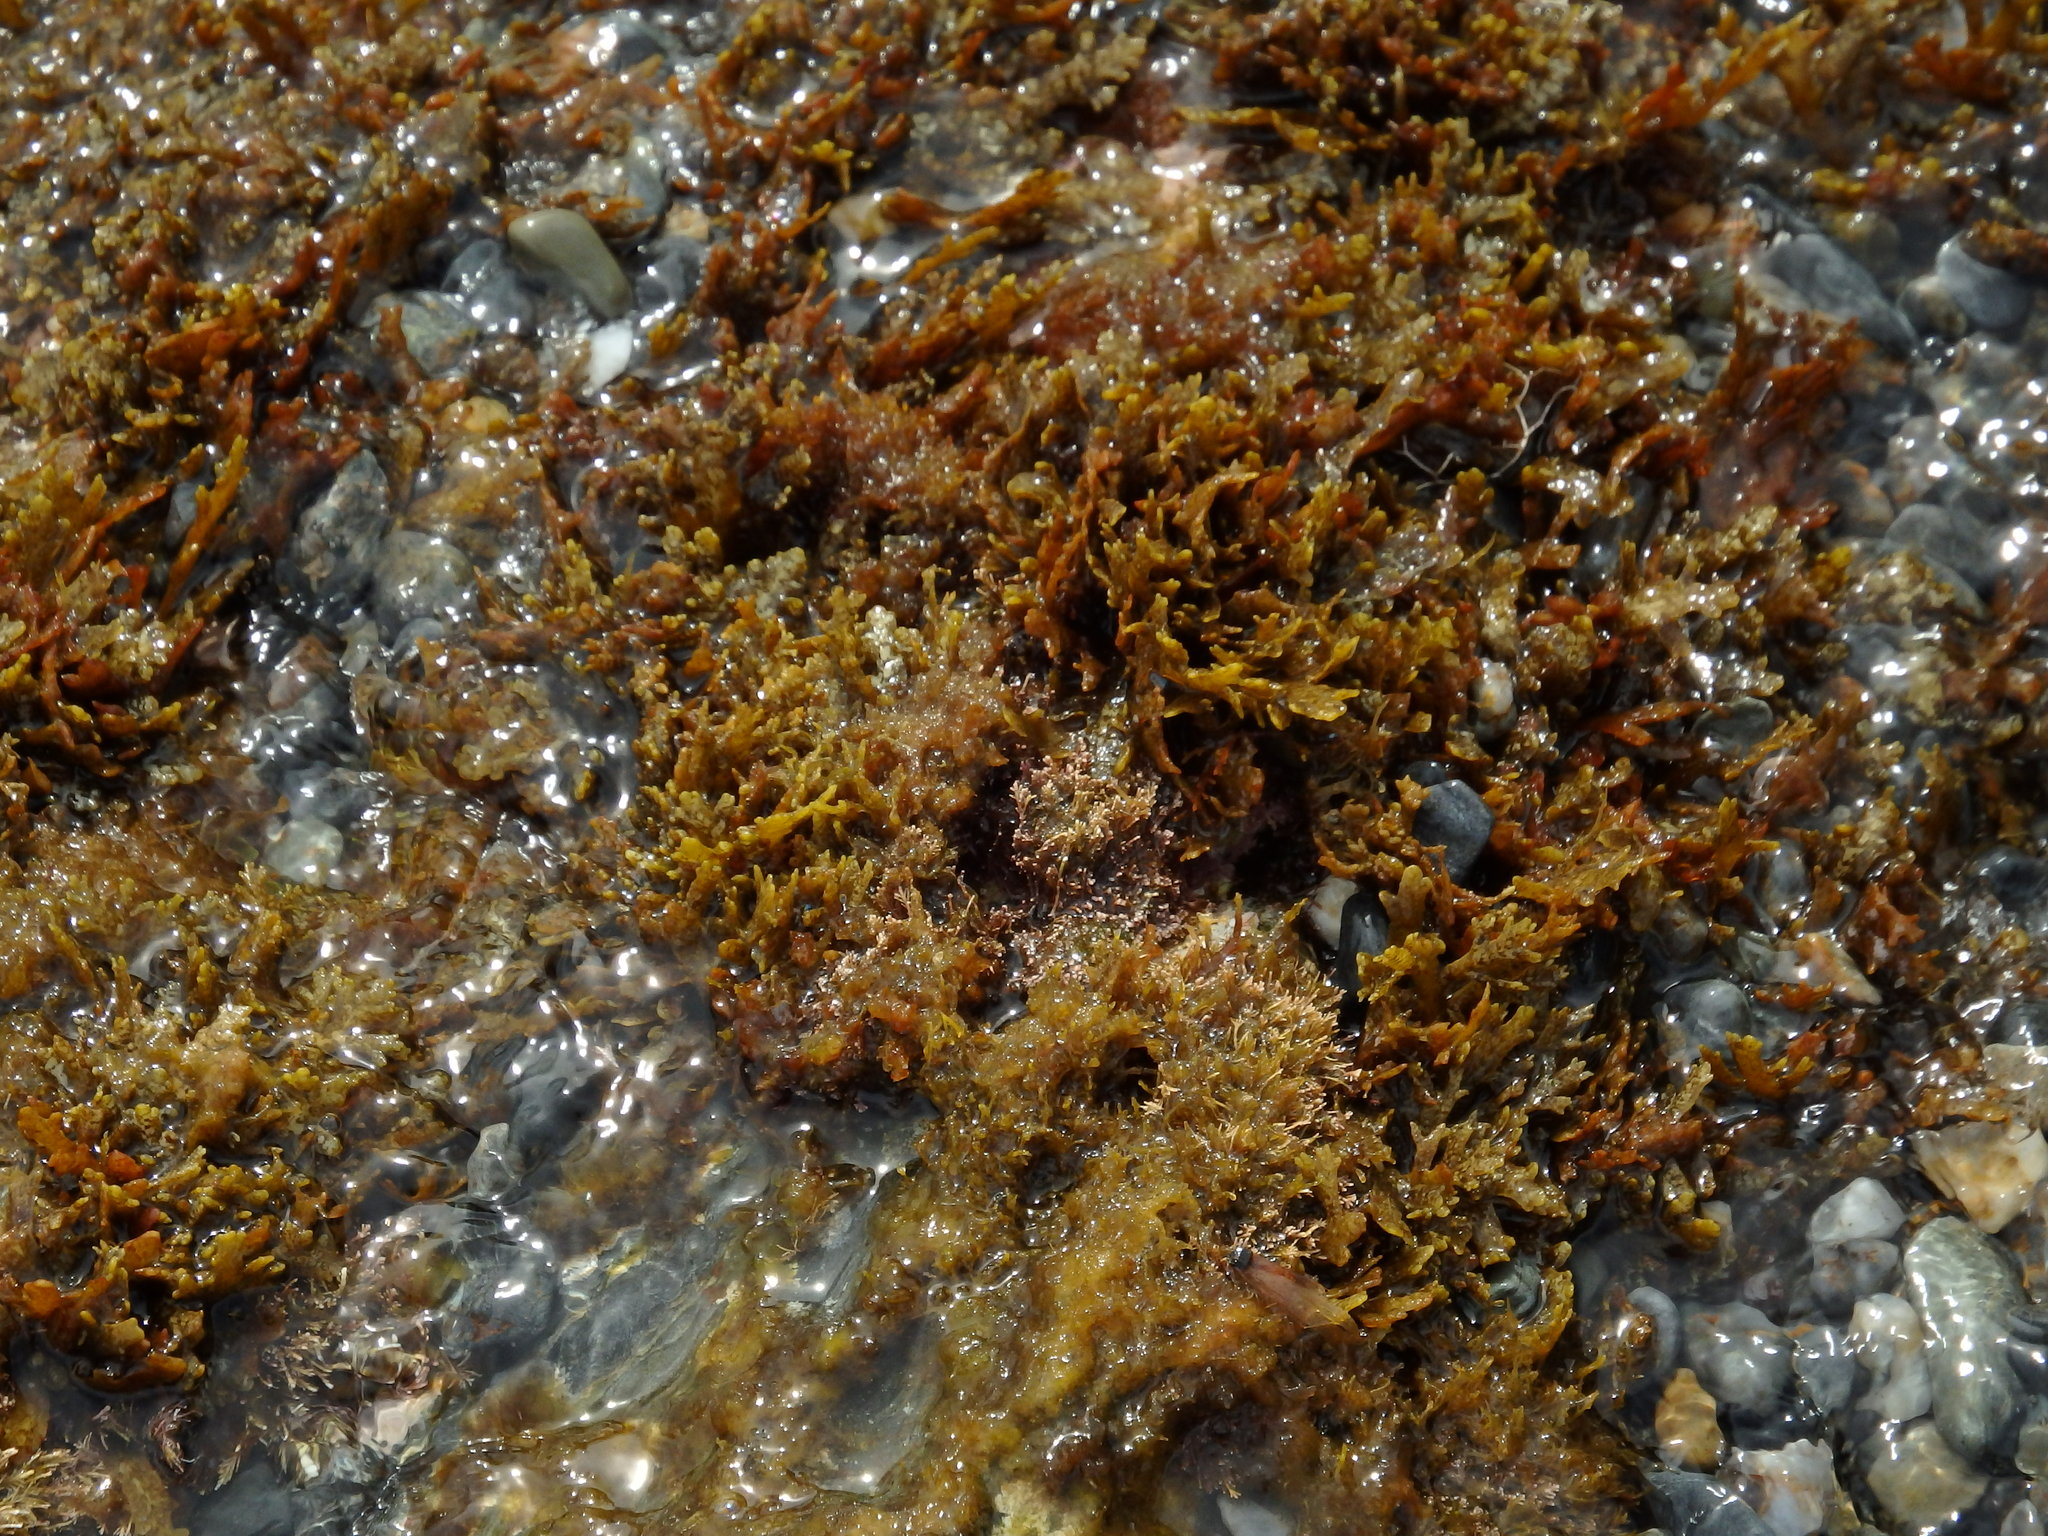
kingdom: Chromista
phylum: Ochrophyta
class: Phaeophyceae
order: Fucales
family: Sargassaceae
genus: Cystoseira
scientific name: Cystoseira compressa
